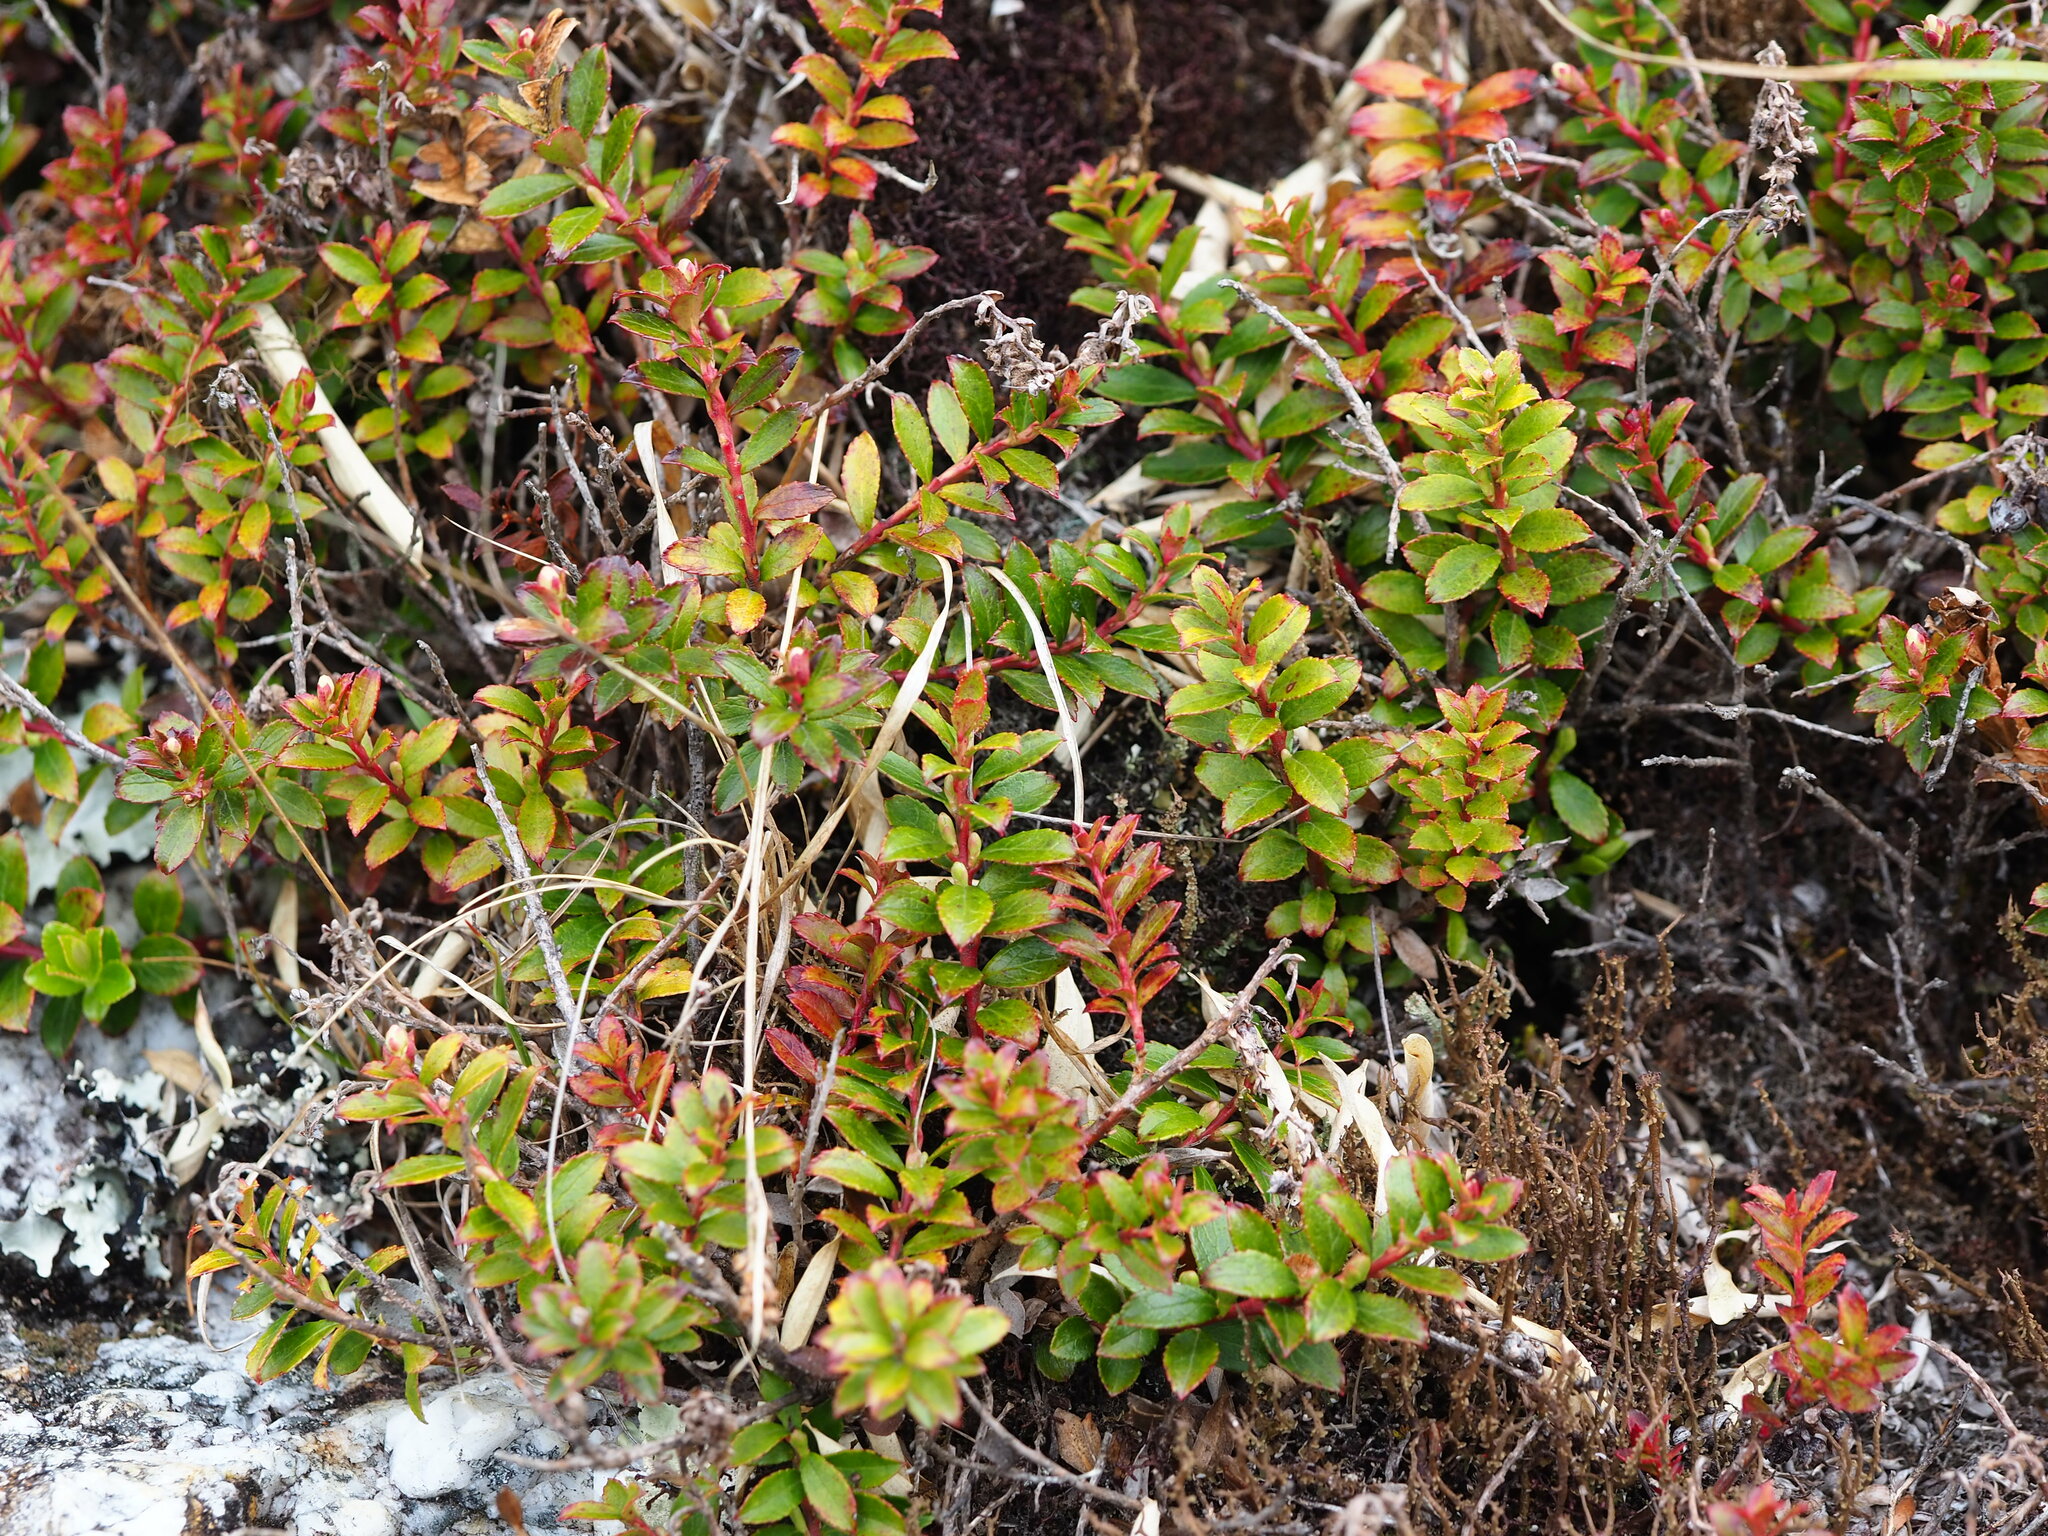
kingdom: Plantae
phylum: Tracheophyta
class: Magnoliopsida
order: Ericales
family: Ericaceae
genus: Gaultheria
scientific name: Gaultheria borneensis
